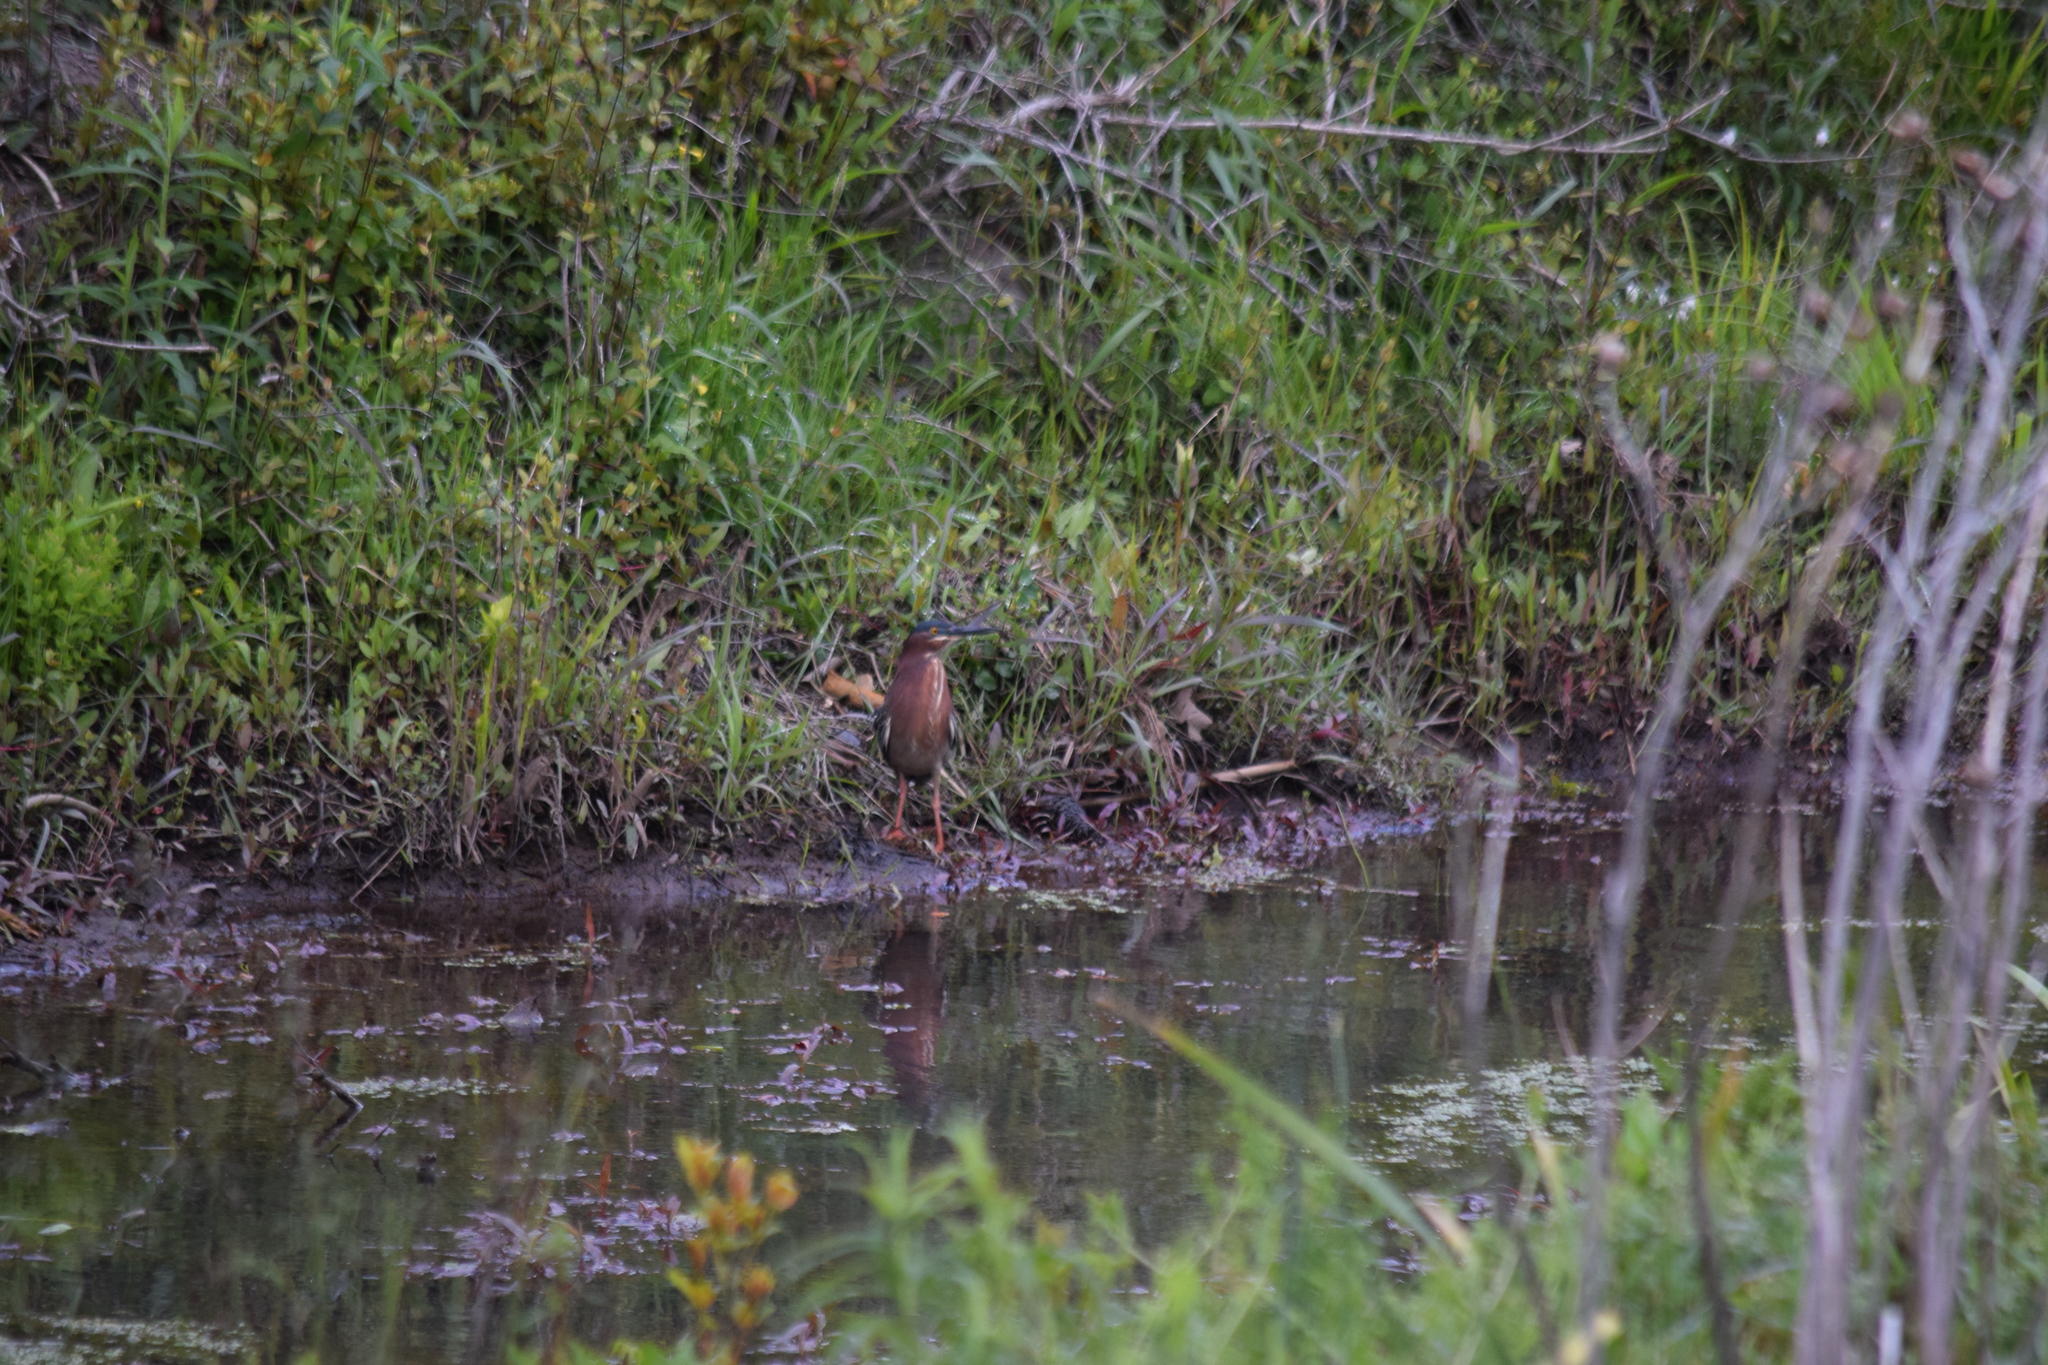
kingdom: Animalia
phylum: Chordata
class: Aves
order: Pelecaniformes
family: Ardeidae
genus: Butorides
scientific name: Butorides virescens
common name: Green heron
